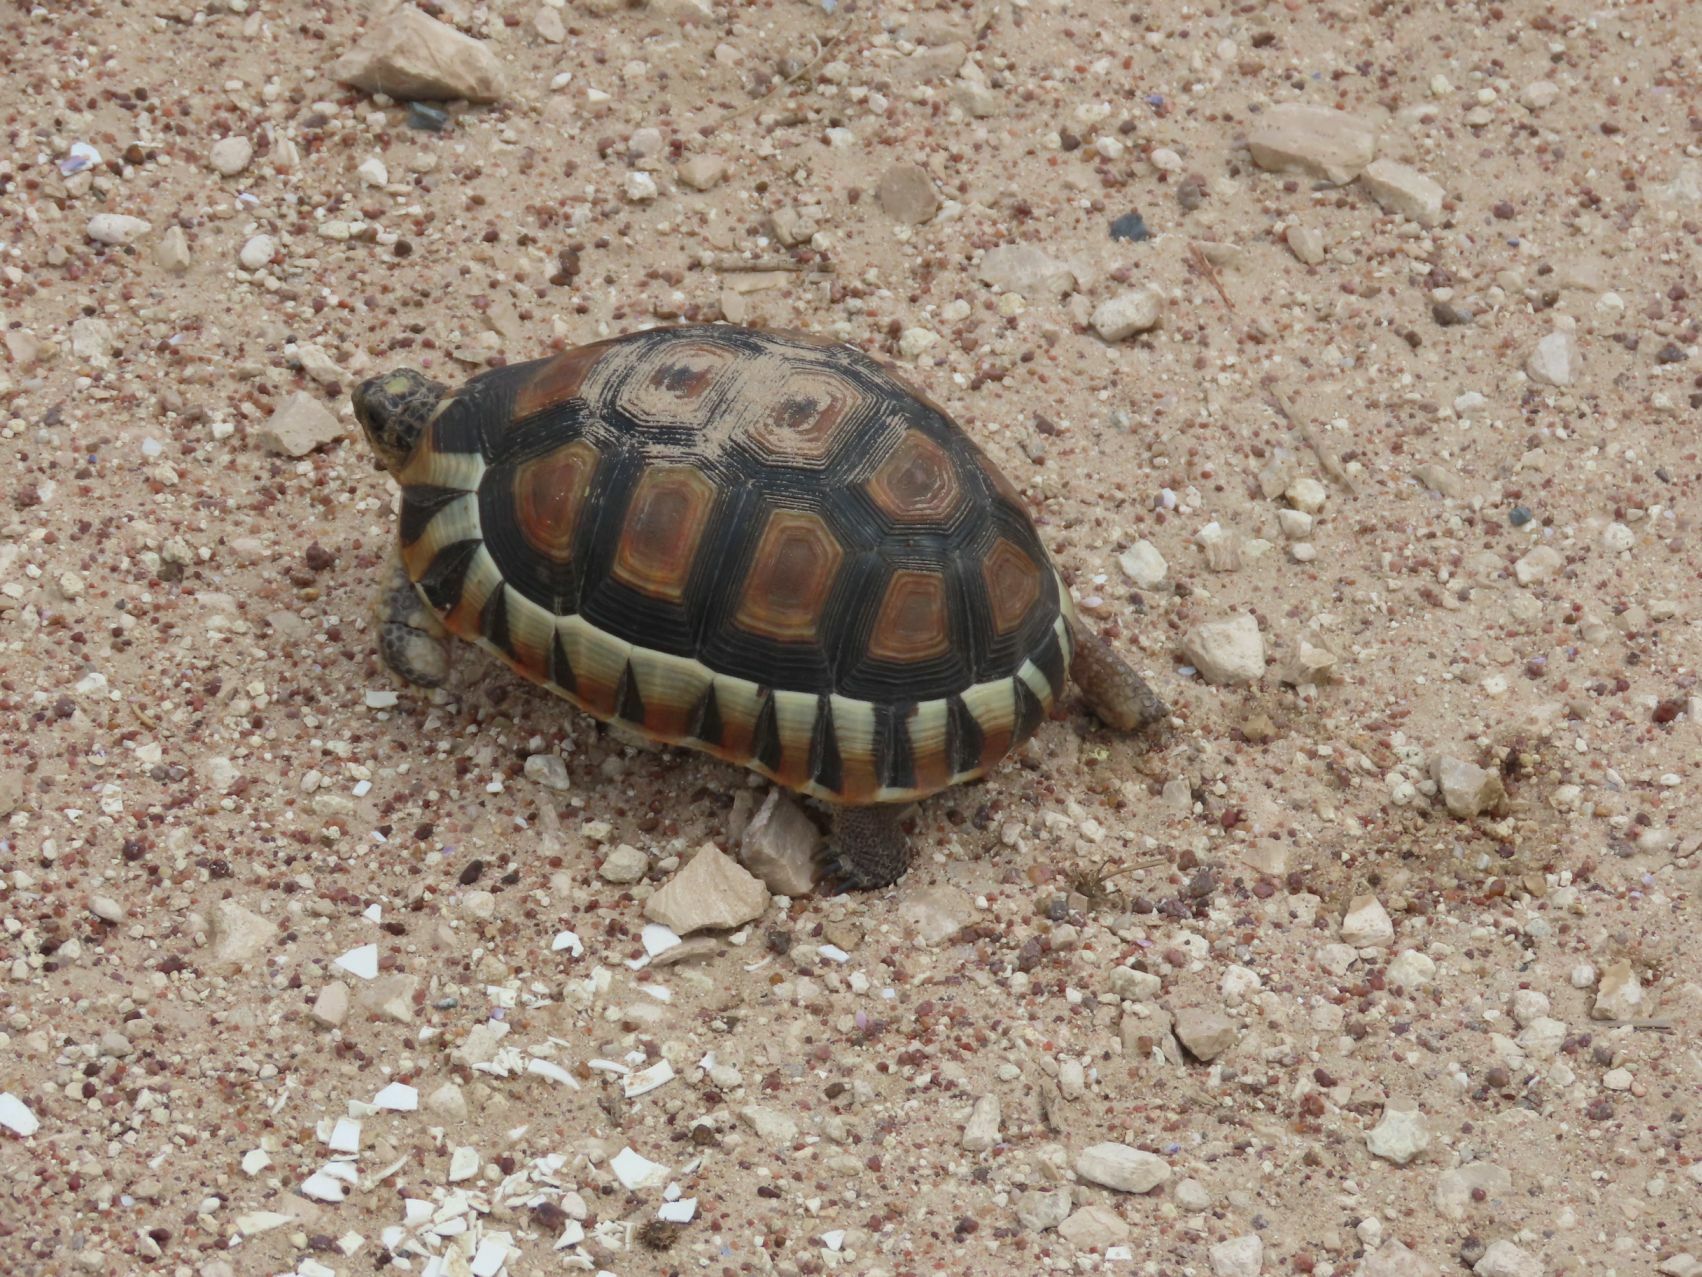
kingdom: Animalia
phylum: Chordata
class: Testudines
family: Testudinidae
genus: Chersina
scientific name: Chersina angulata
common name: South african bowsprit tortoise
